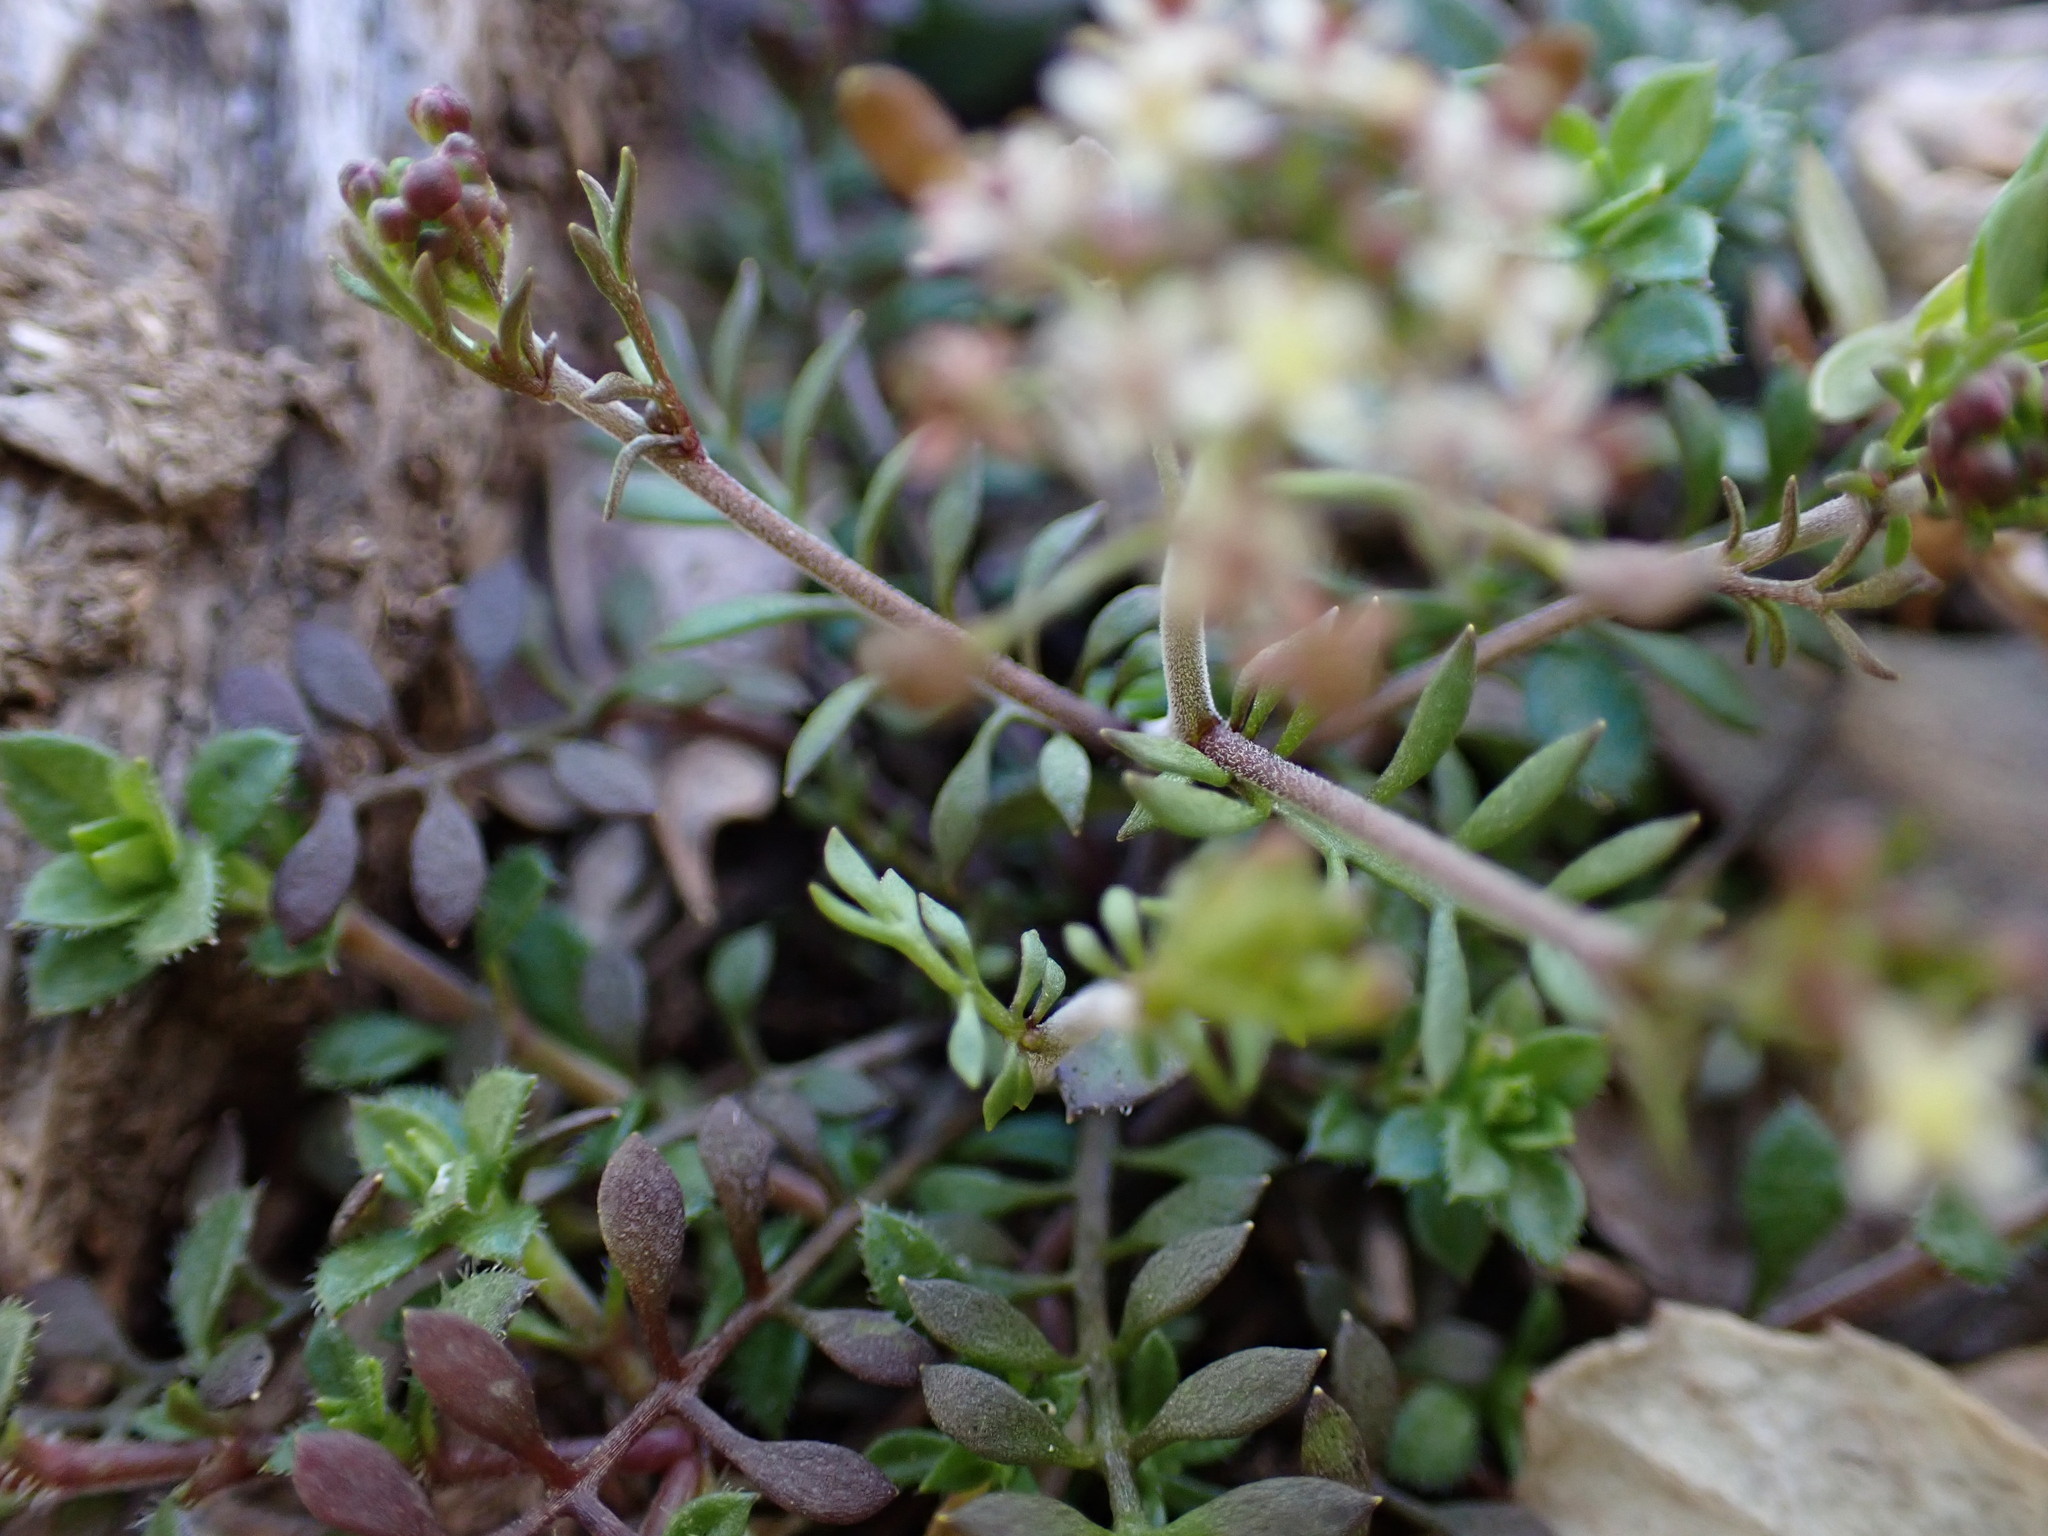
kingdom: Plantae
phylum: Tracheophyta
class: Magnoliopsida
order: Brassicales
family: Brassicaceae
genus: Hornungia
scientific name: Hornungia petraea
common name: Hutchinsia
